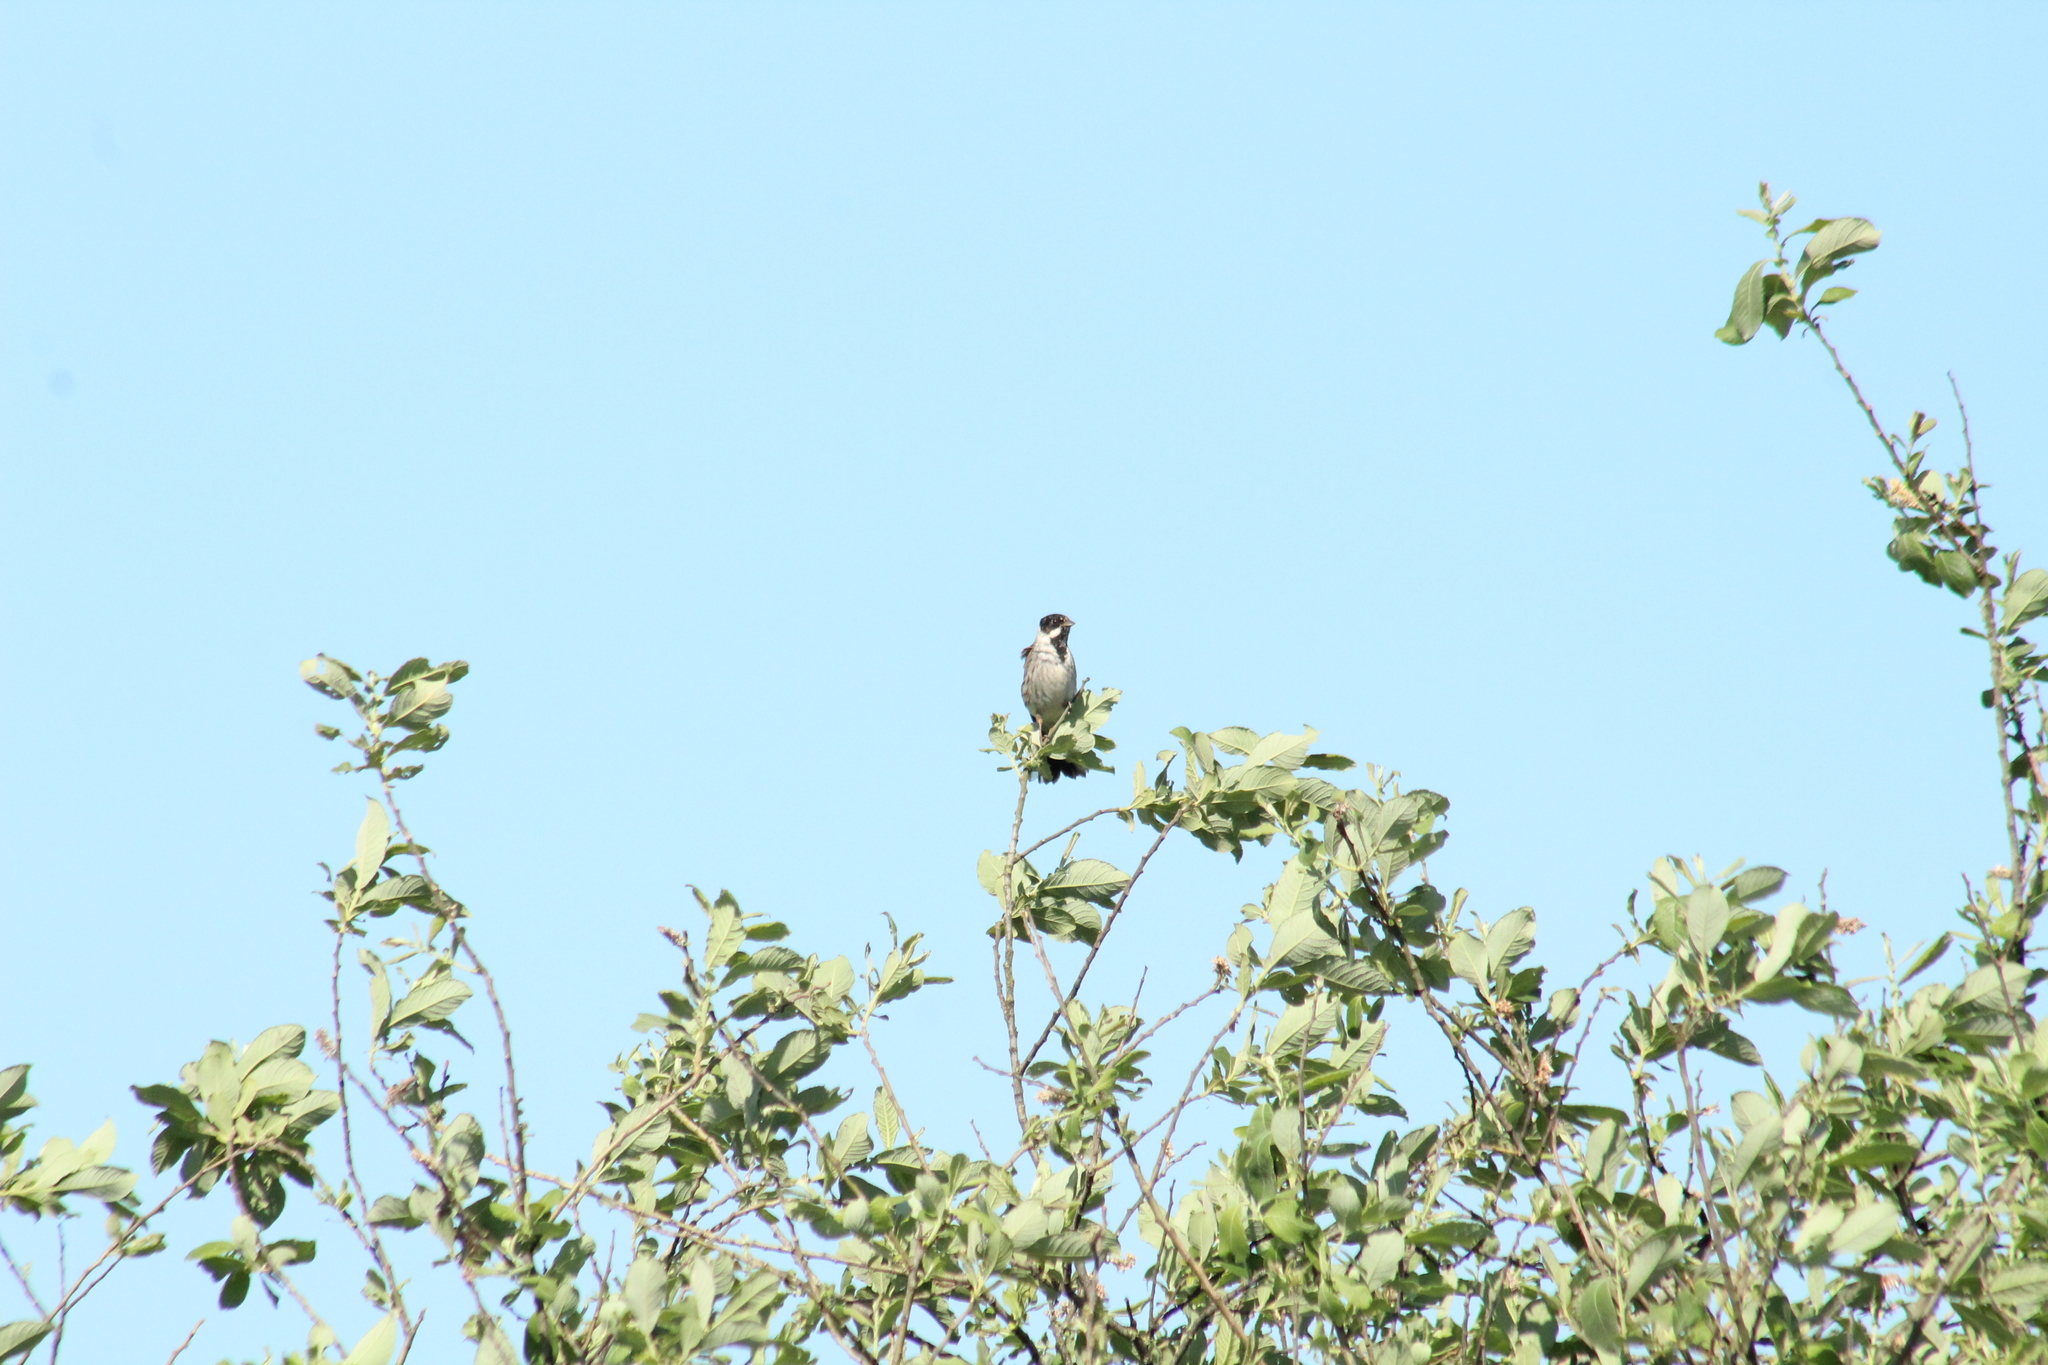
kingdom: Animalia
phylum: Chordata
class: Aves
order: Passeriformes
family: Emberizidae
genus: Emberiza
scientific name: Emberiza schoeniclus
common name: Reed bunting
